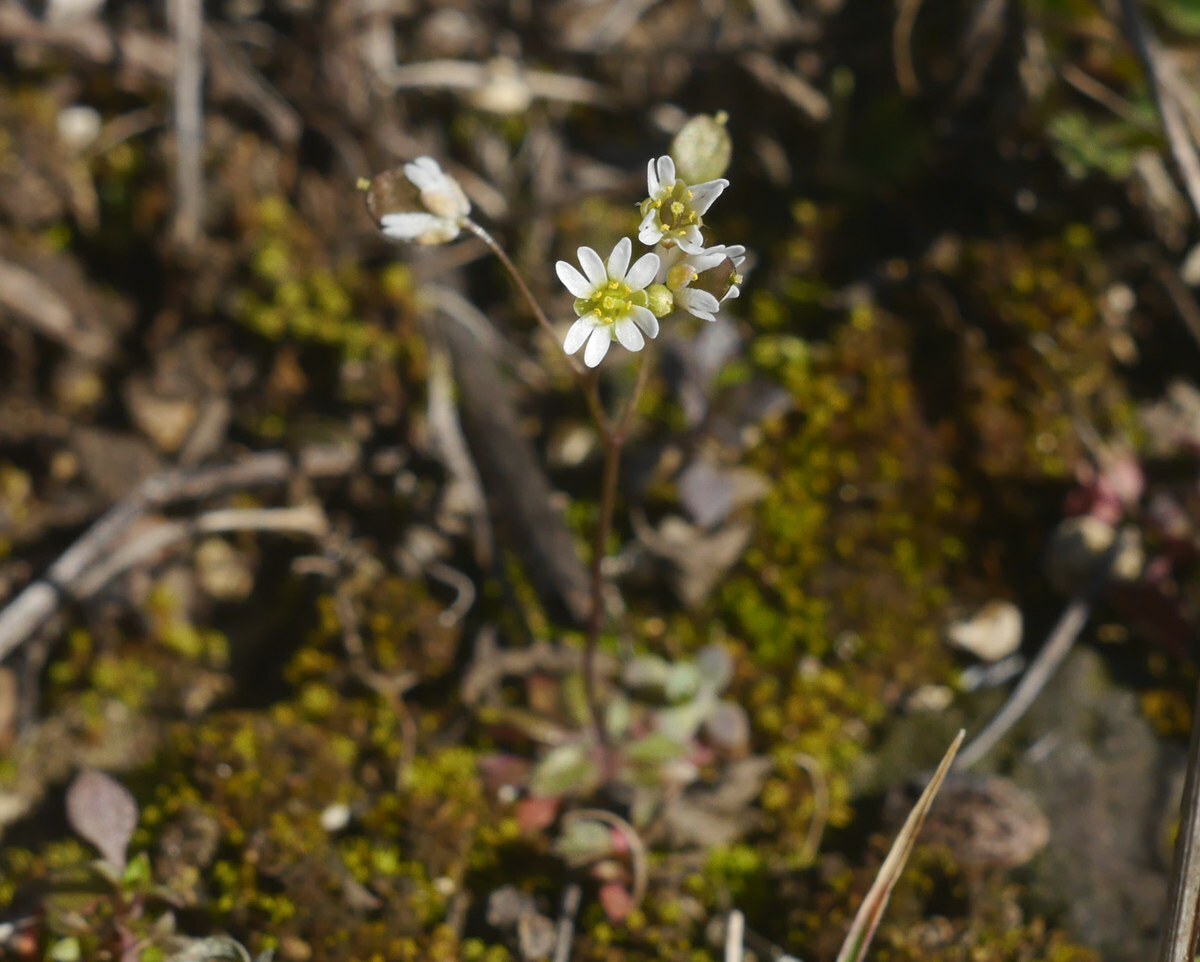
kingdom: Plantae
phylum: Tracheophyta
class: Magnoliopsida
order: Brassicales
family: Brassicaceae
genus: Draba
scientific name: Draba verna
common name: Spring draba
